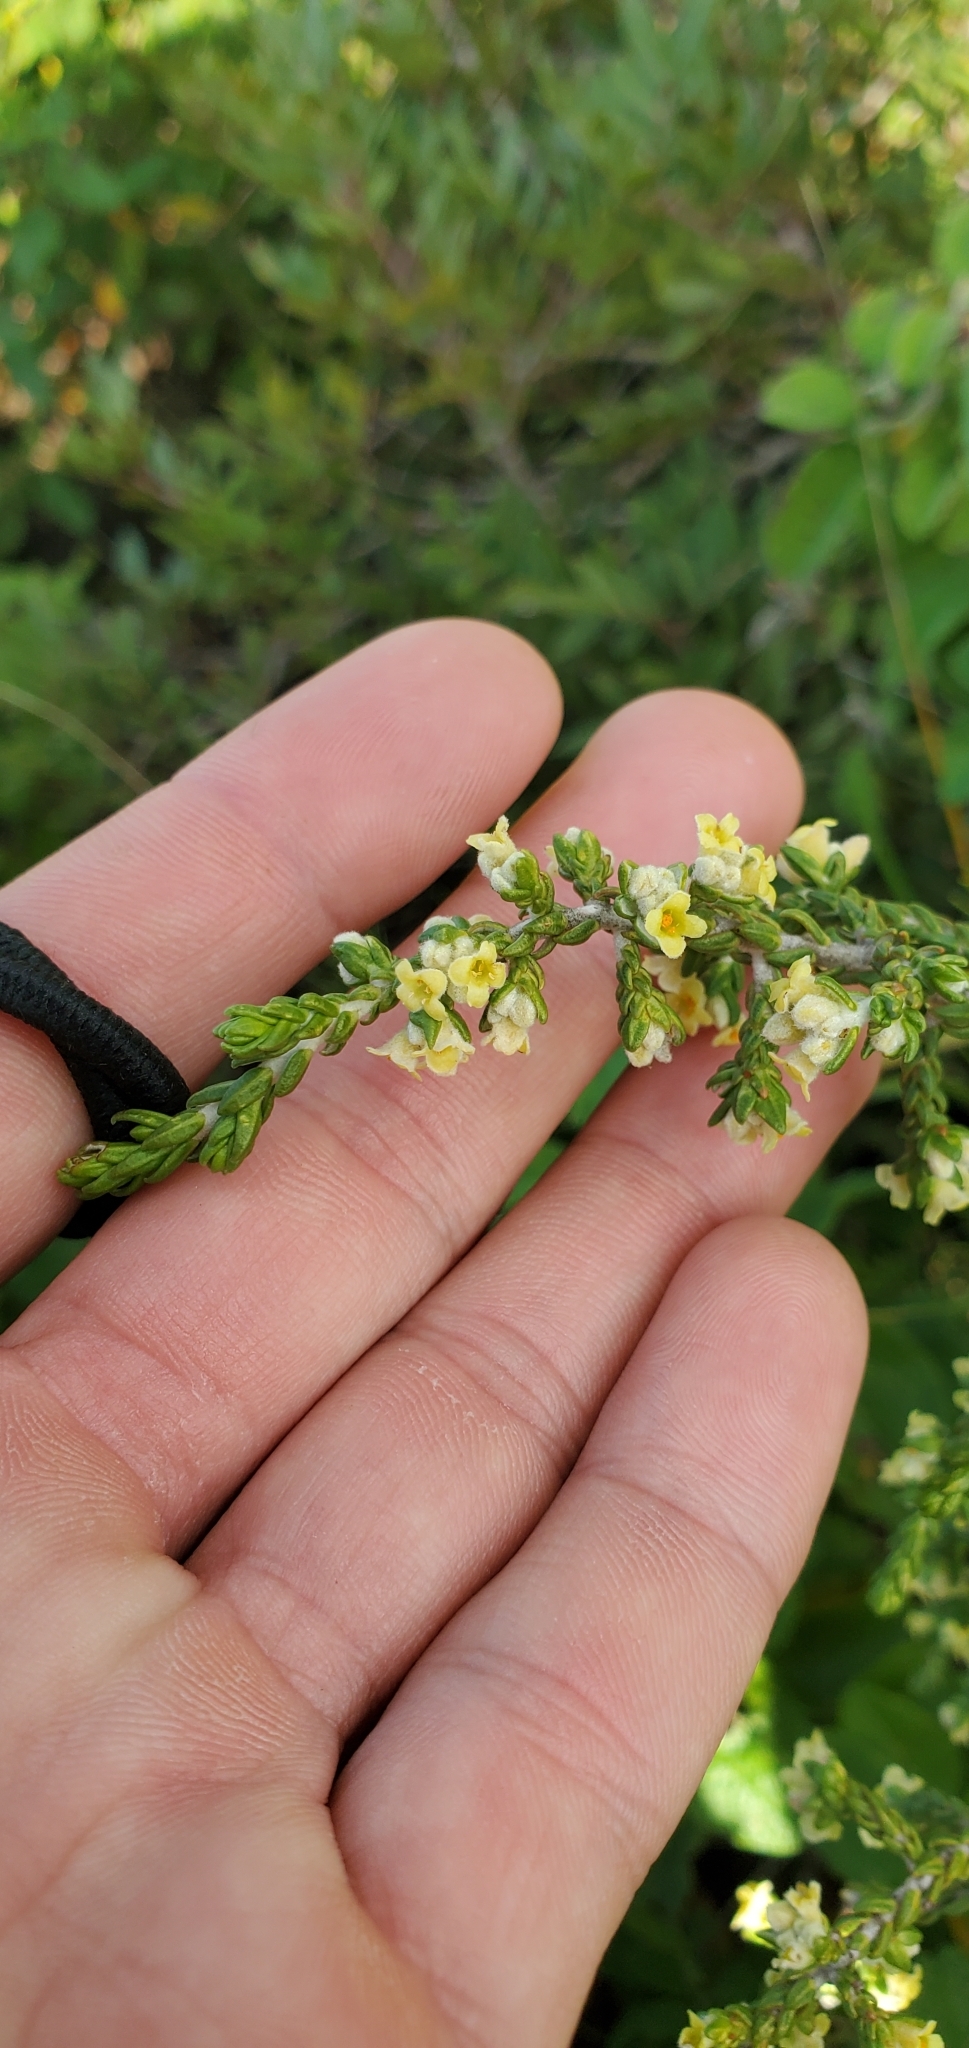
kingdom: Plantae
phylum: Tracheophyta
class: Magnoliopsida
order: Malvales
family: Thymelaeaceae
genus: Thymelaea
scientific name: Thymelaea hirsuta
